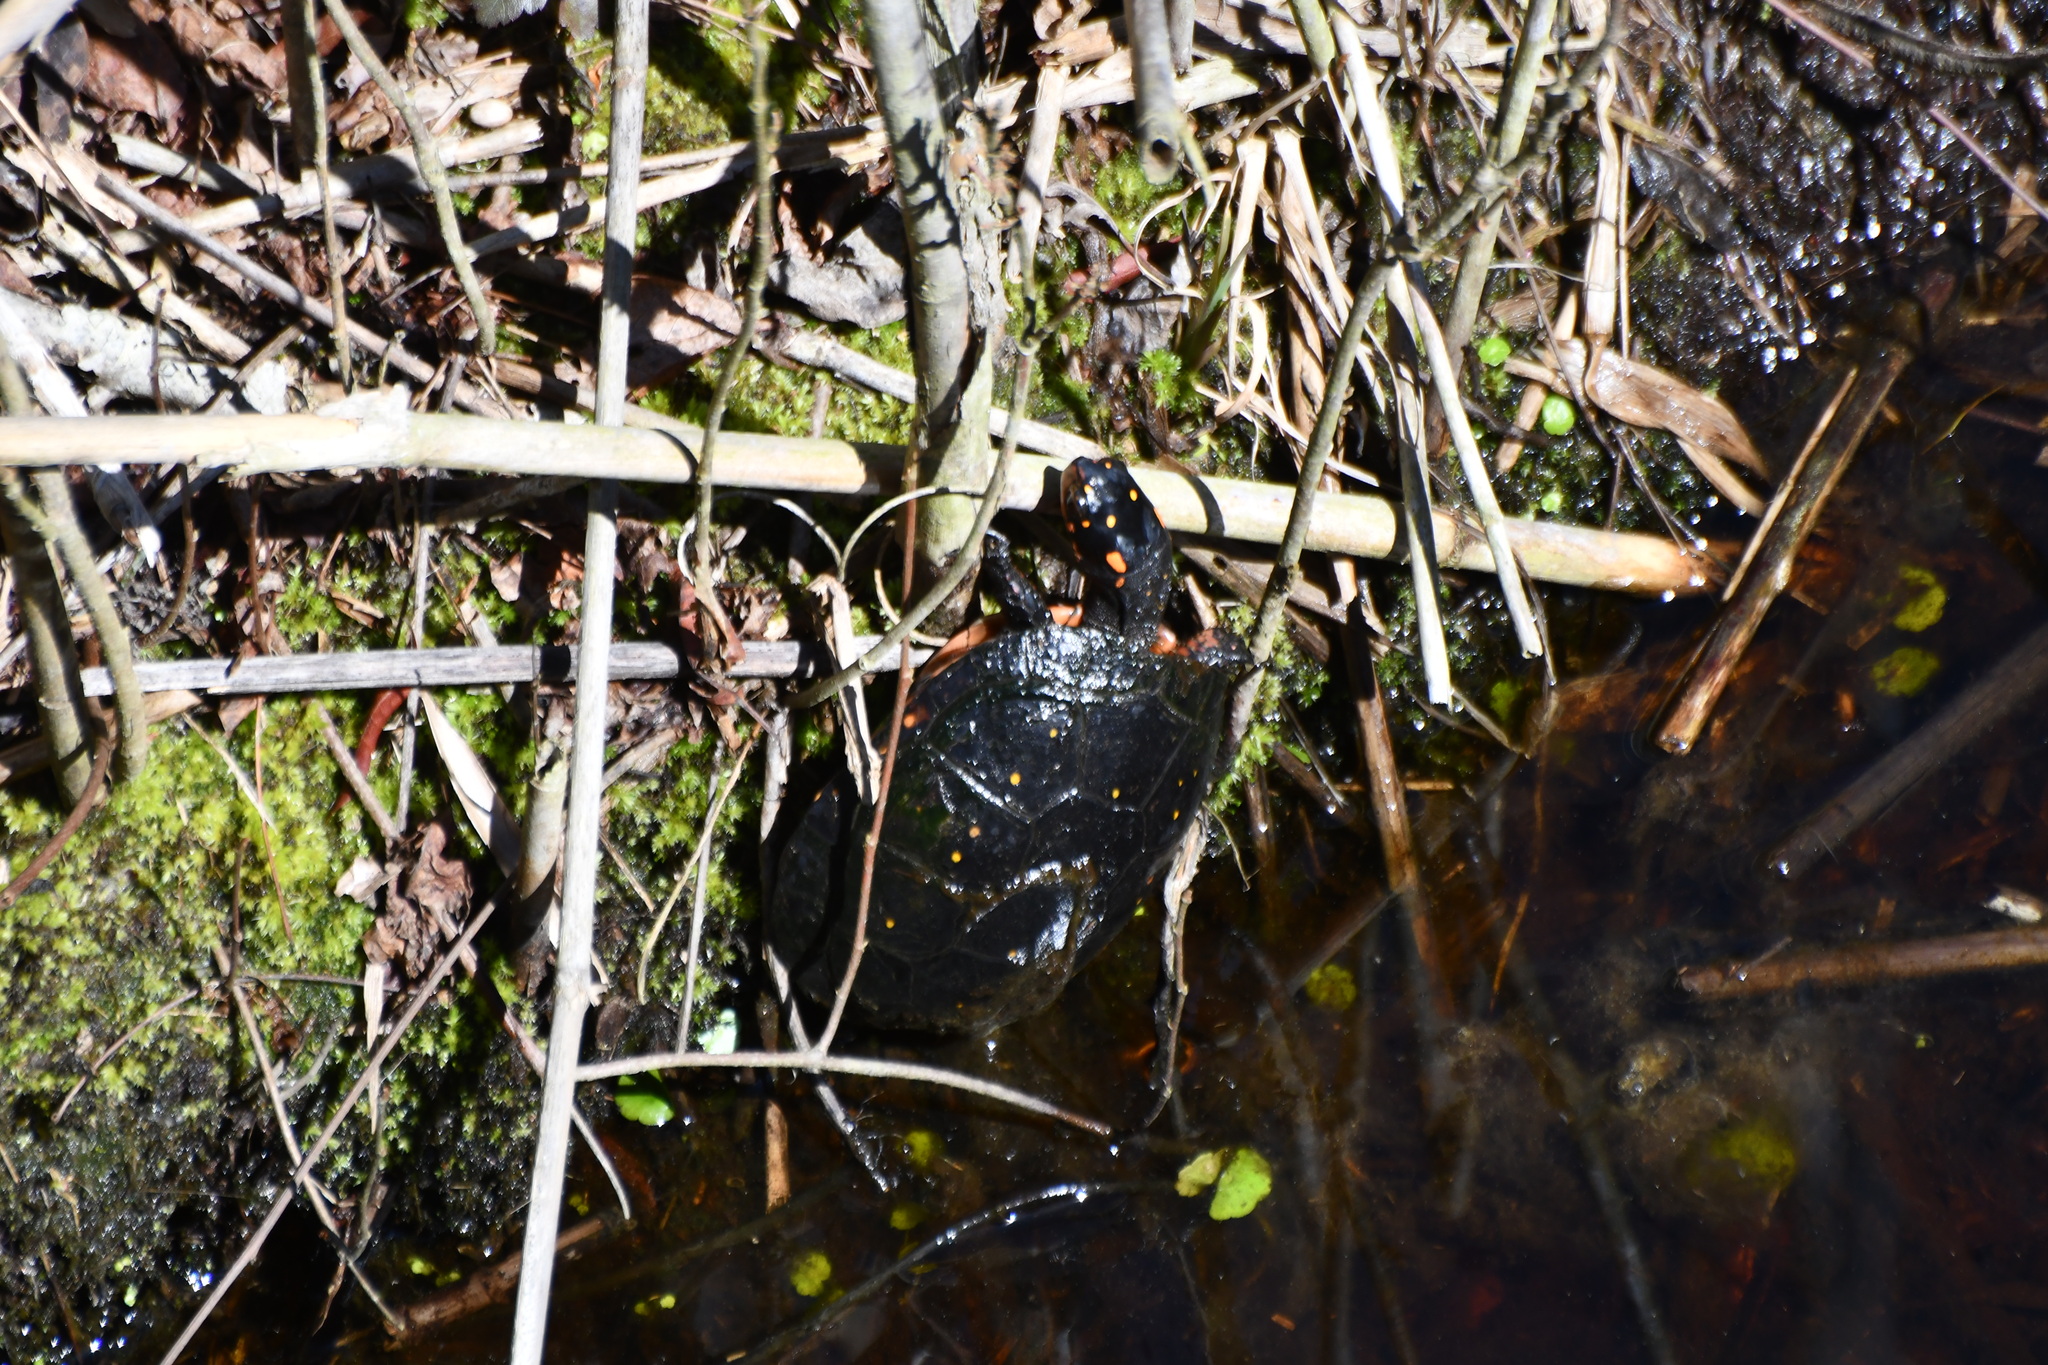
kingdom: Animalia
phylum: Chordata
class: Testudines
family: Emydidae
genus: Clemmys
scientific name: Clemmys guttata
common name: Spotted turtle
